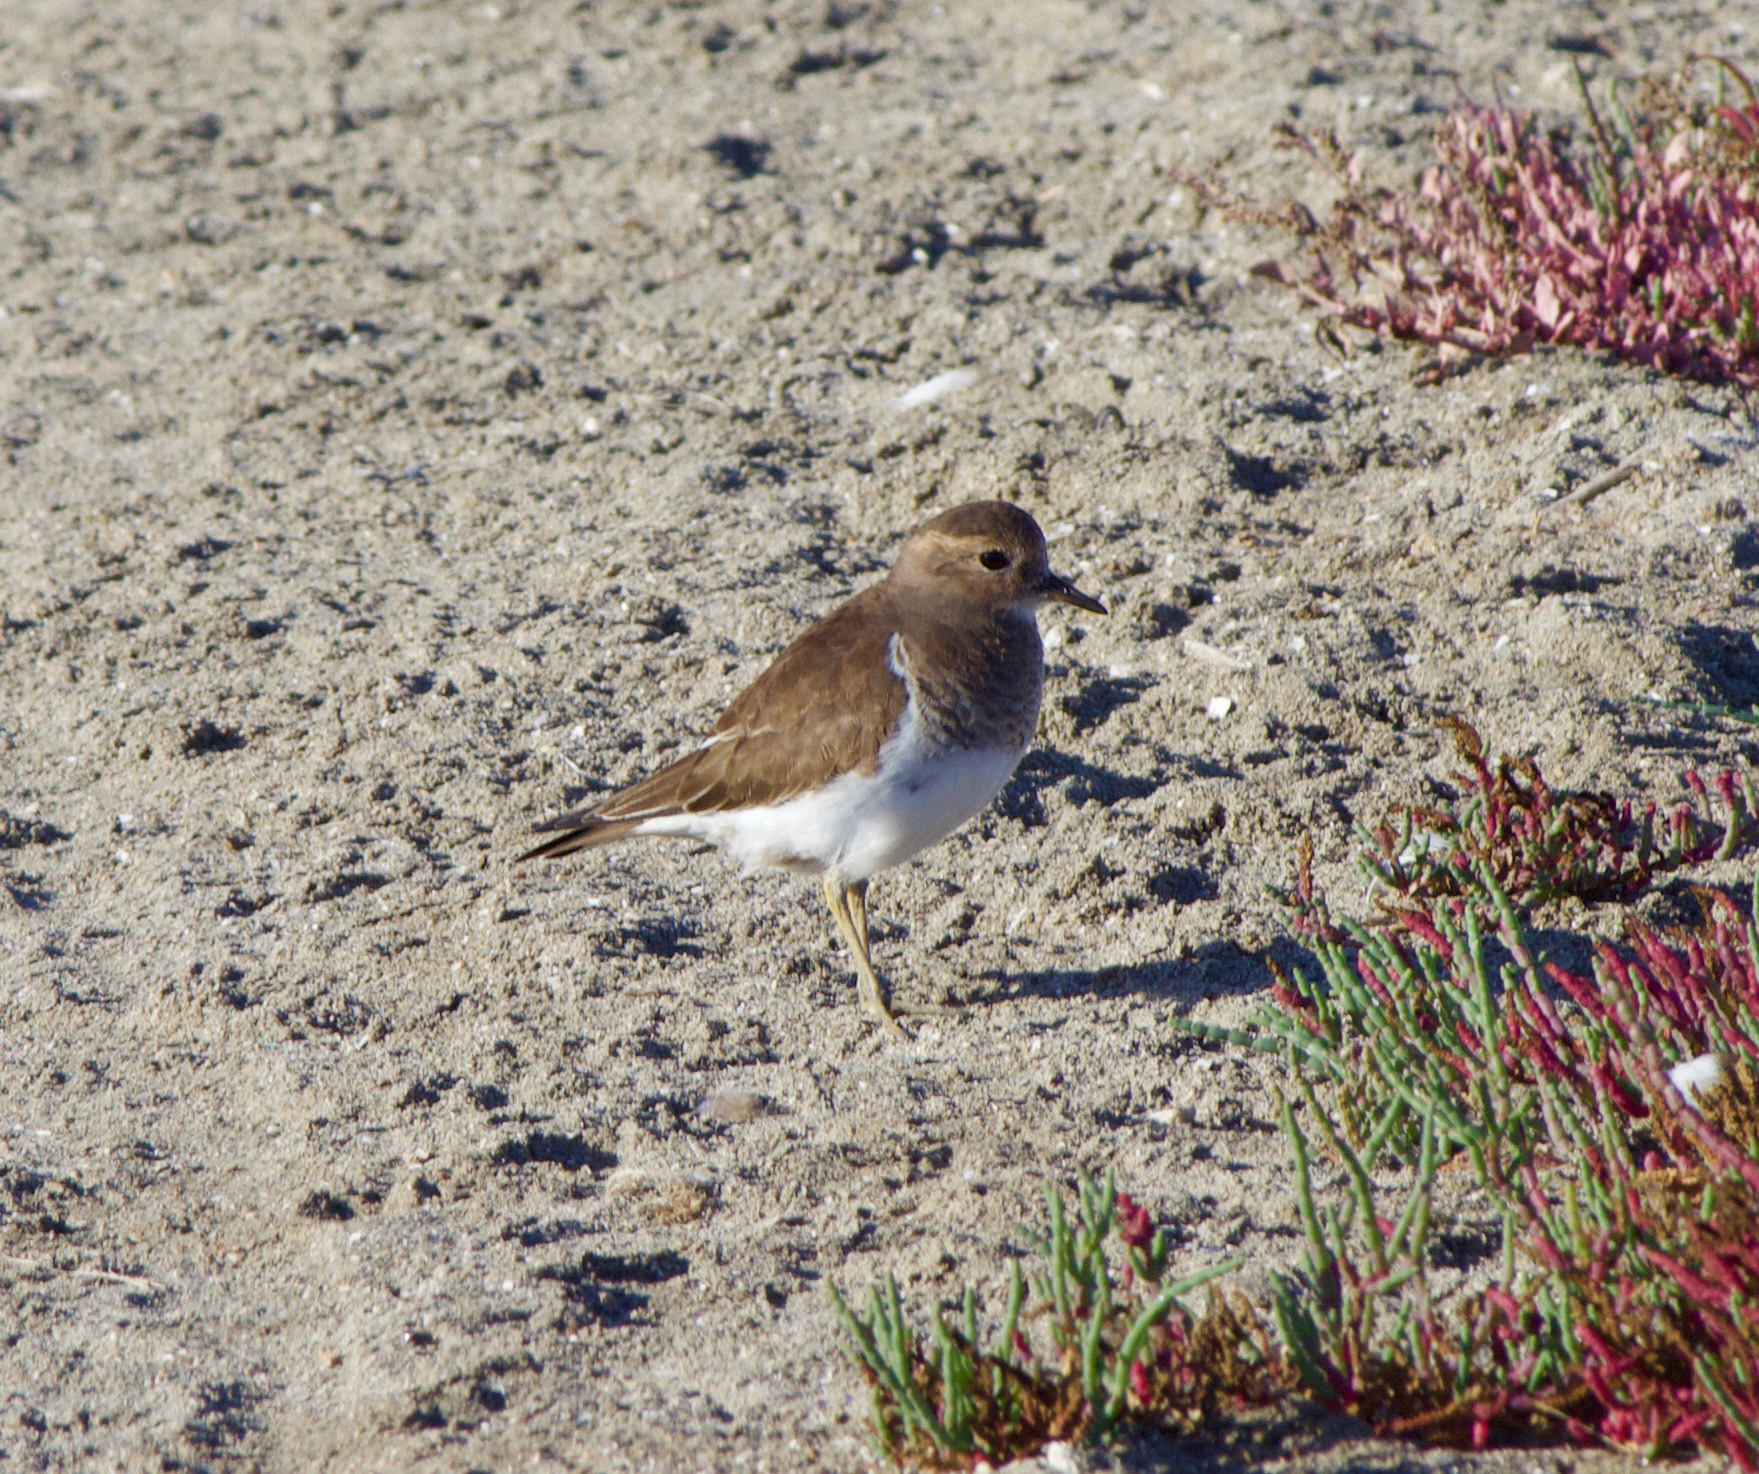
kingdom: Animalia
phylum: Chordata
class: Aves
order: Charadriiformes
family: Charadriidae
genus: Charadrius
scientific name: Charadrius modestus
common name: Rufous-chested plover
